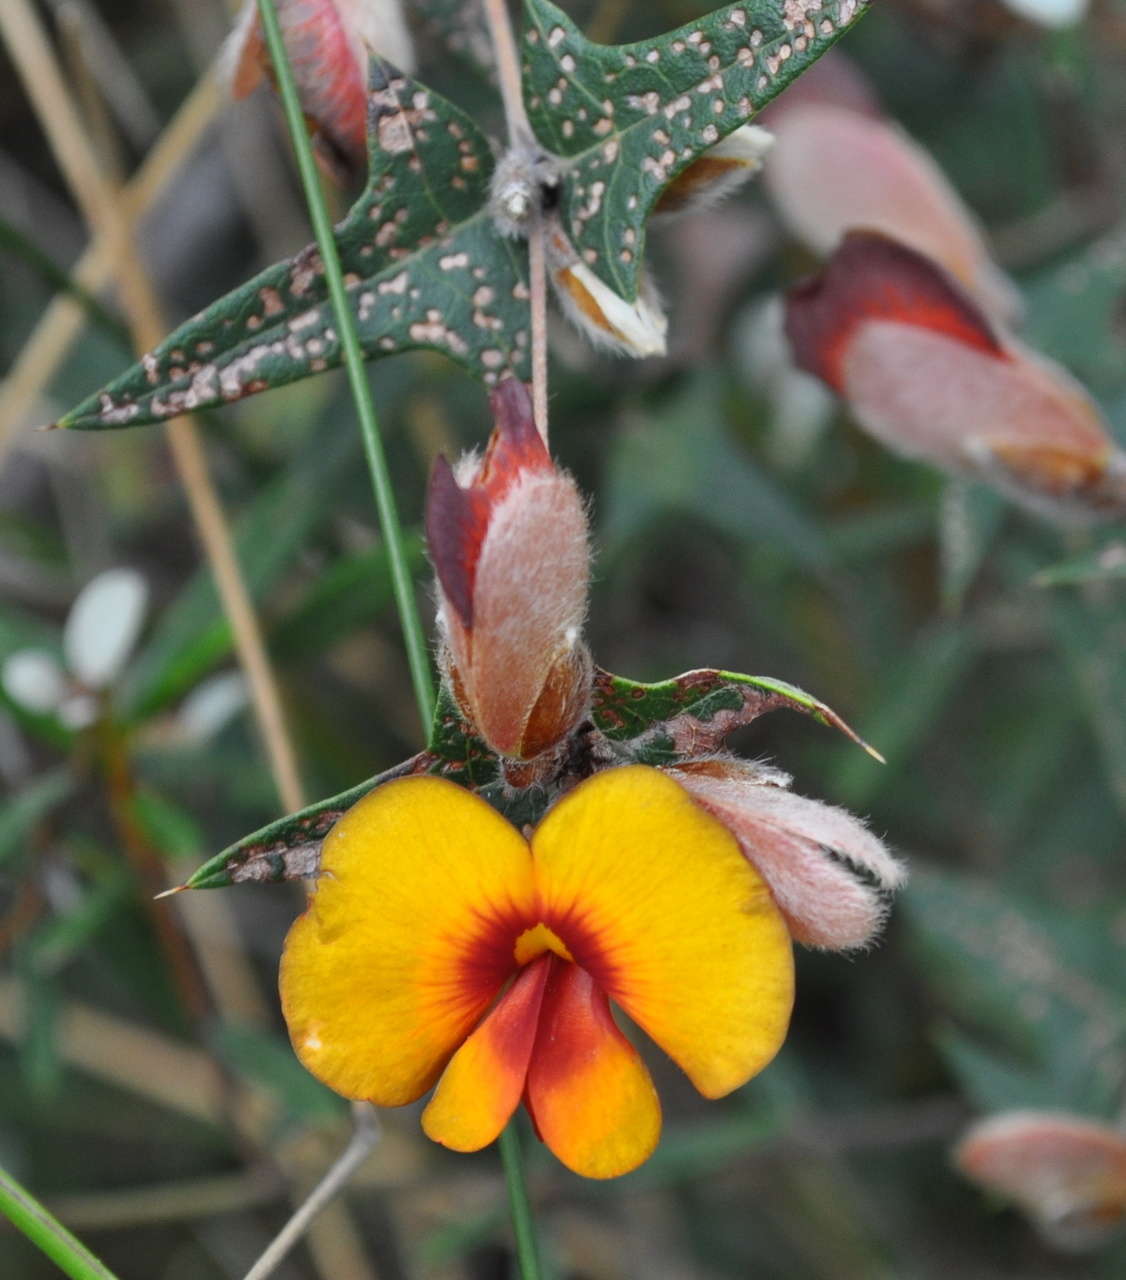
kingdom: Plantae
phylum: Tracheophyta
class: Magnoliopsida
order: Fabales
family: Fabaceae
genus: Platylobium
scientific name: Platylobium obtusangulum
